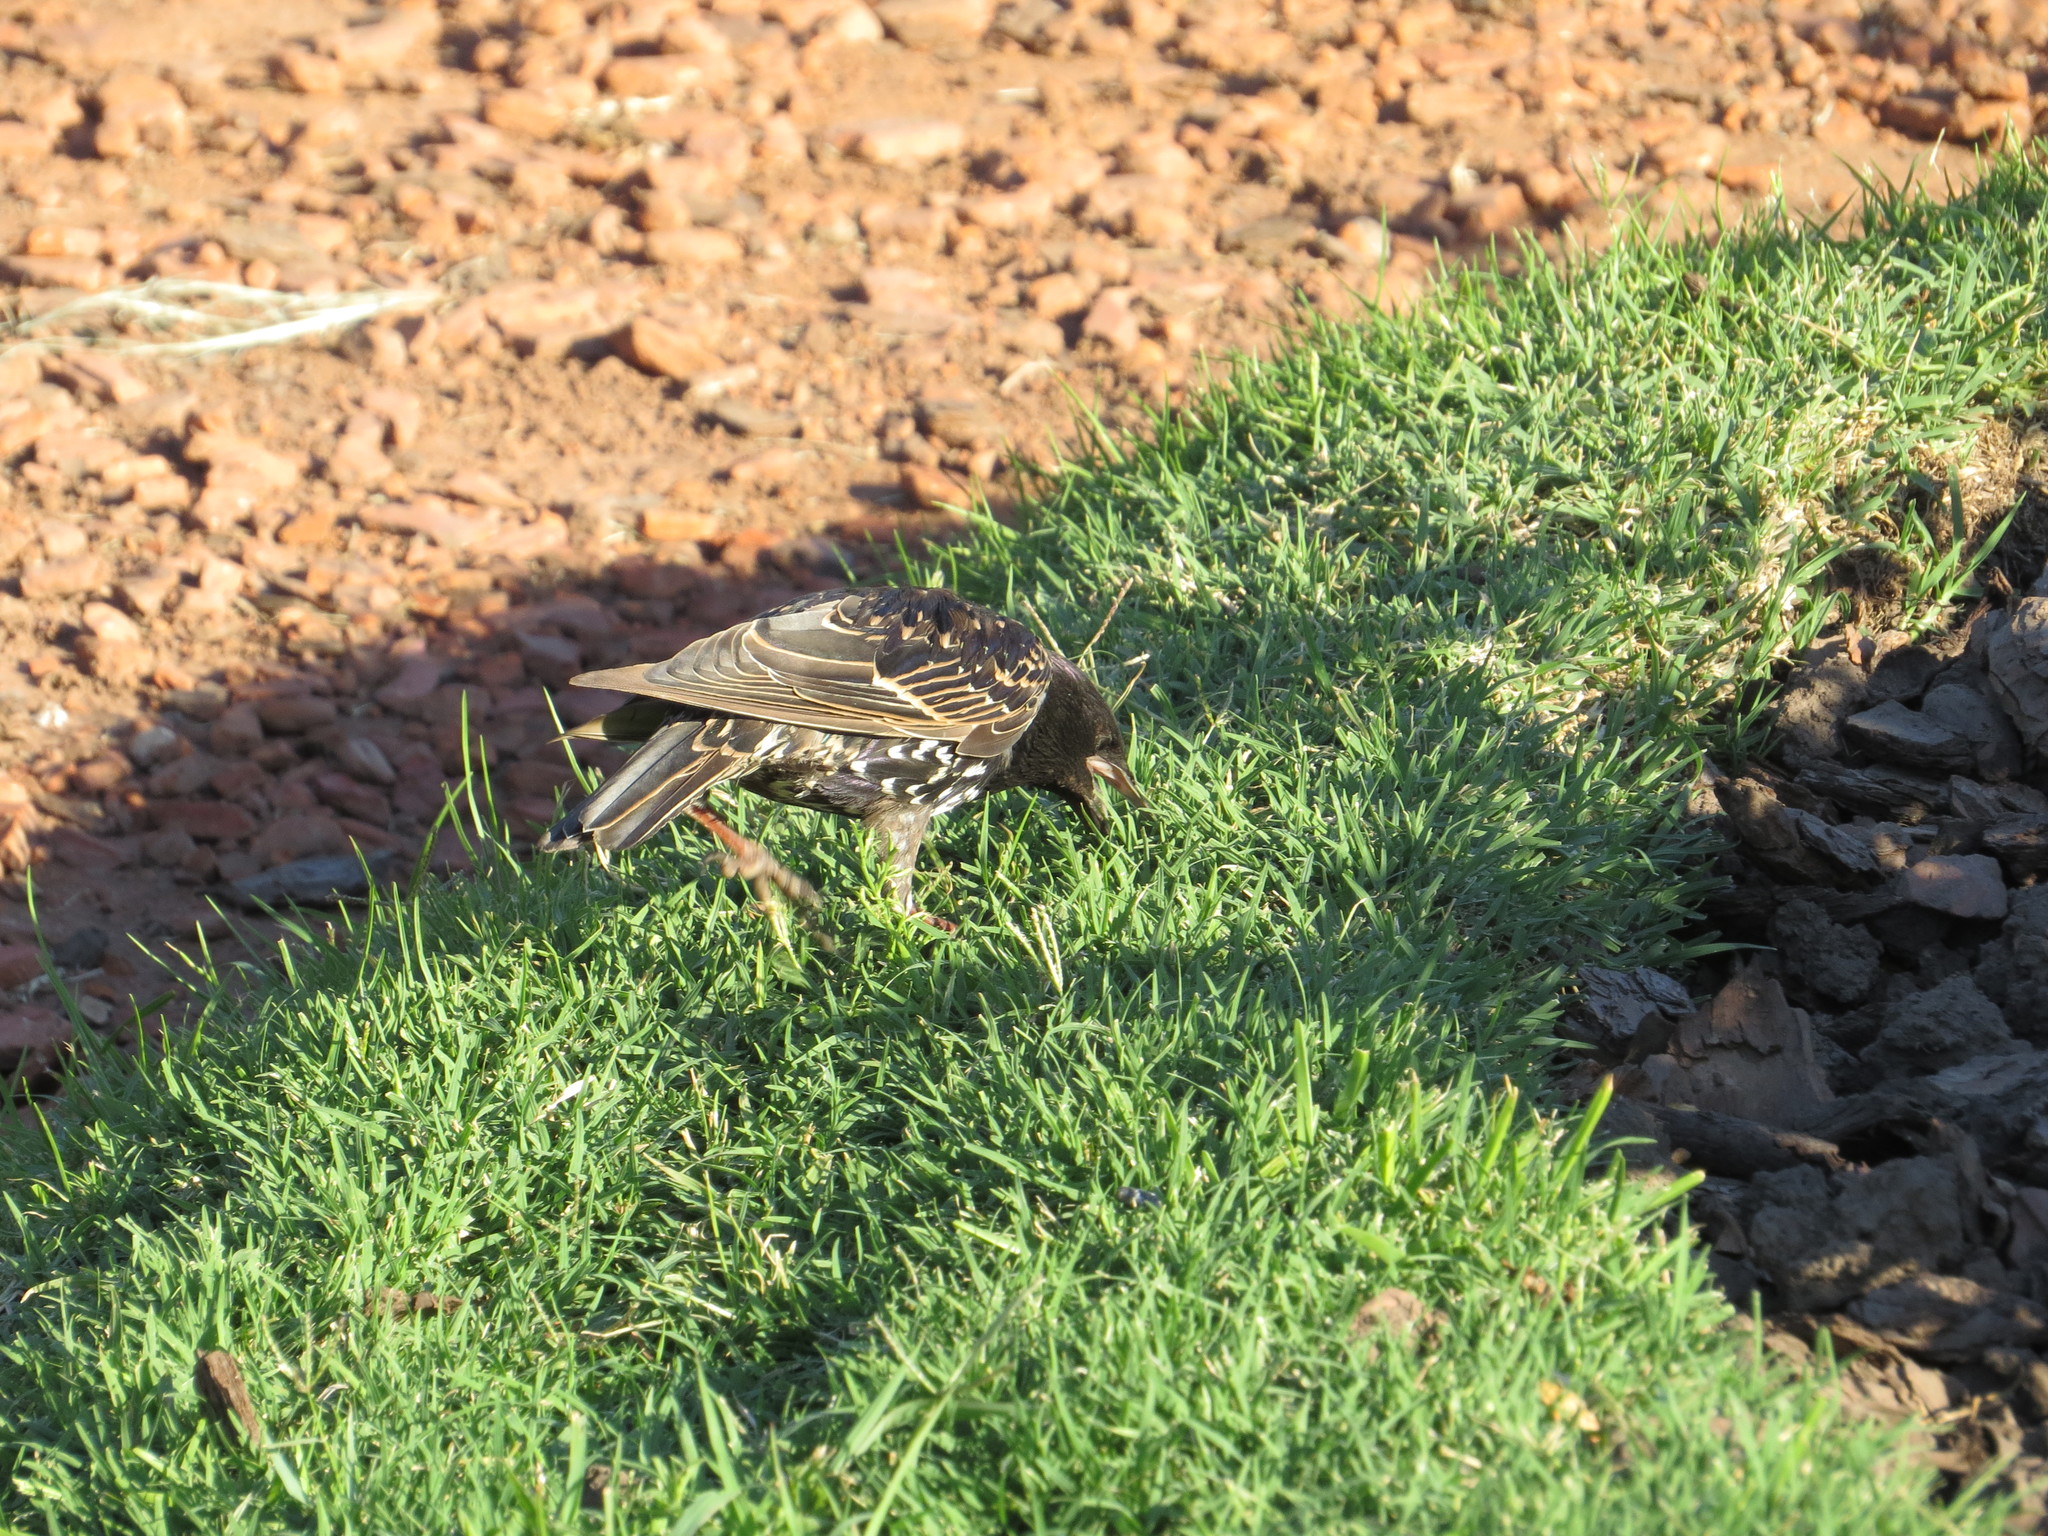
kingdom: Animalia
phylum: Chordata
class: Aves
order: Passeriformes
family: Sturnidae
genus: Sturnus
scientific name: Sturnus vulgaris
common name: Common starling
